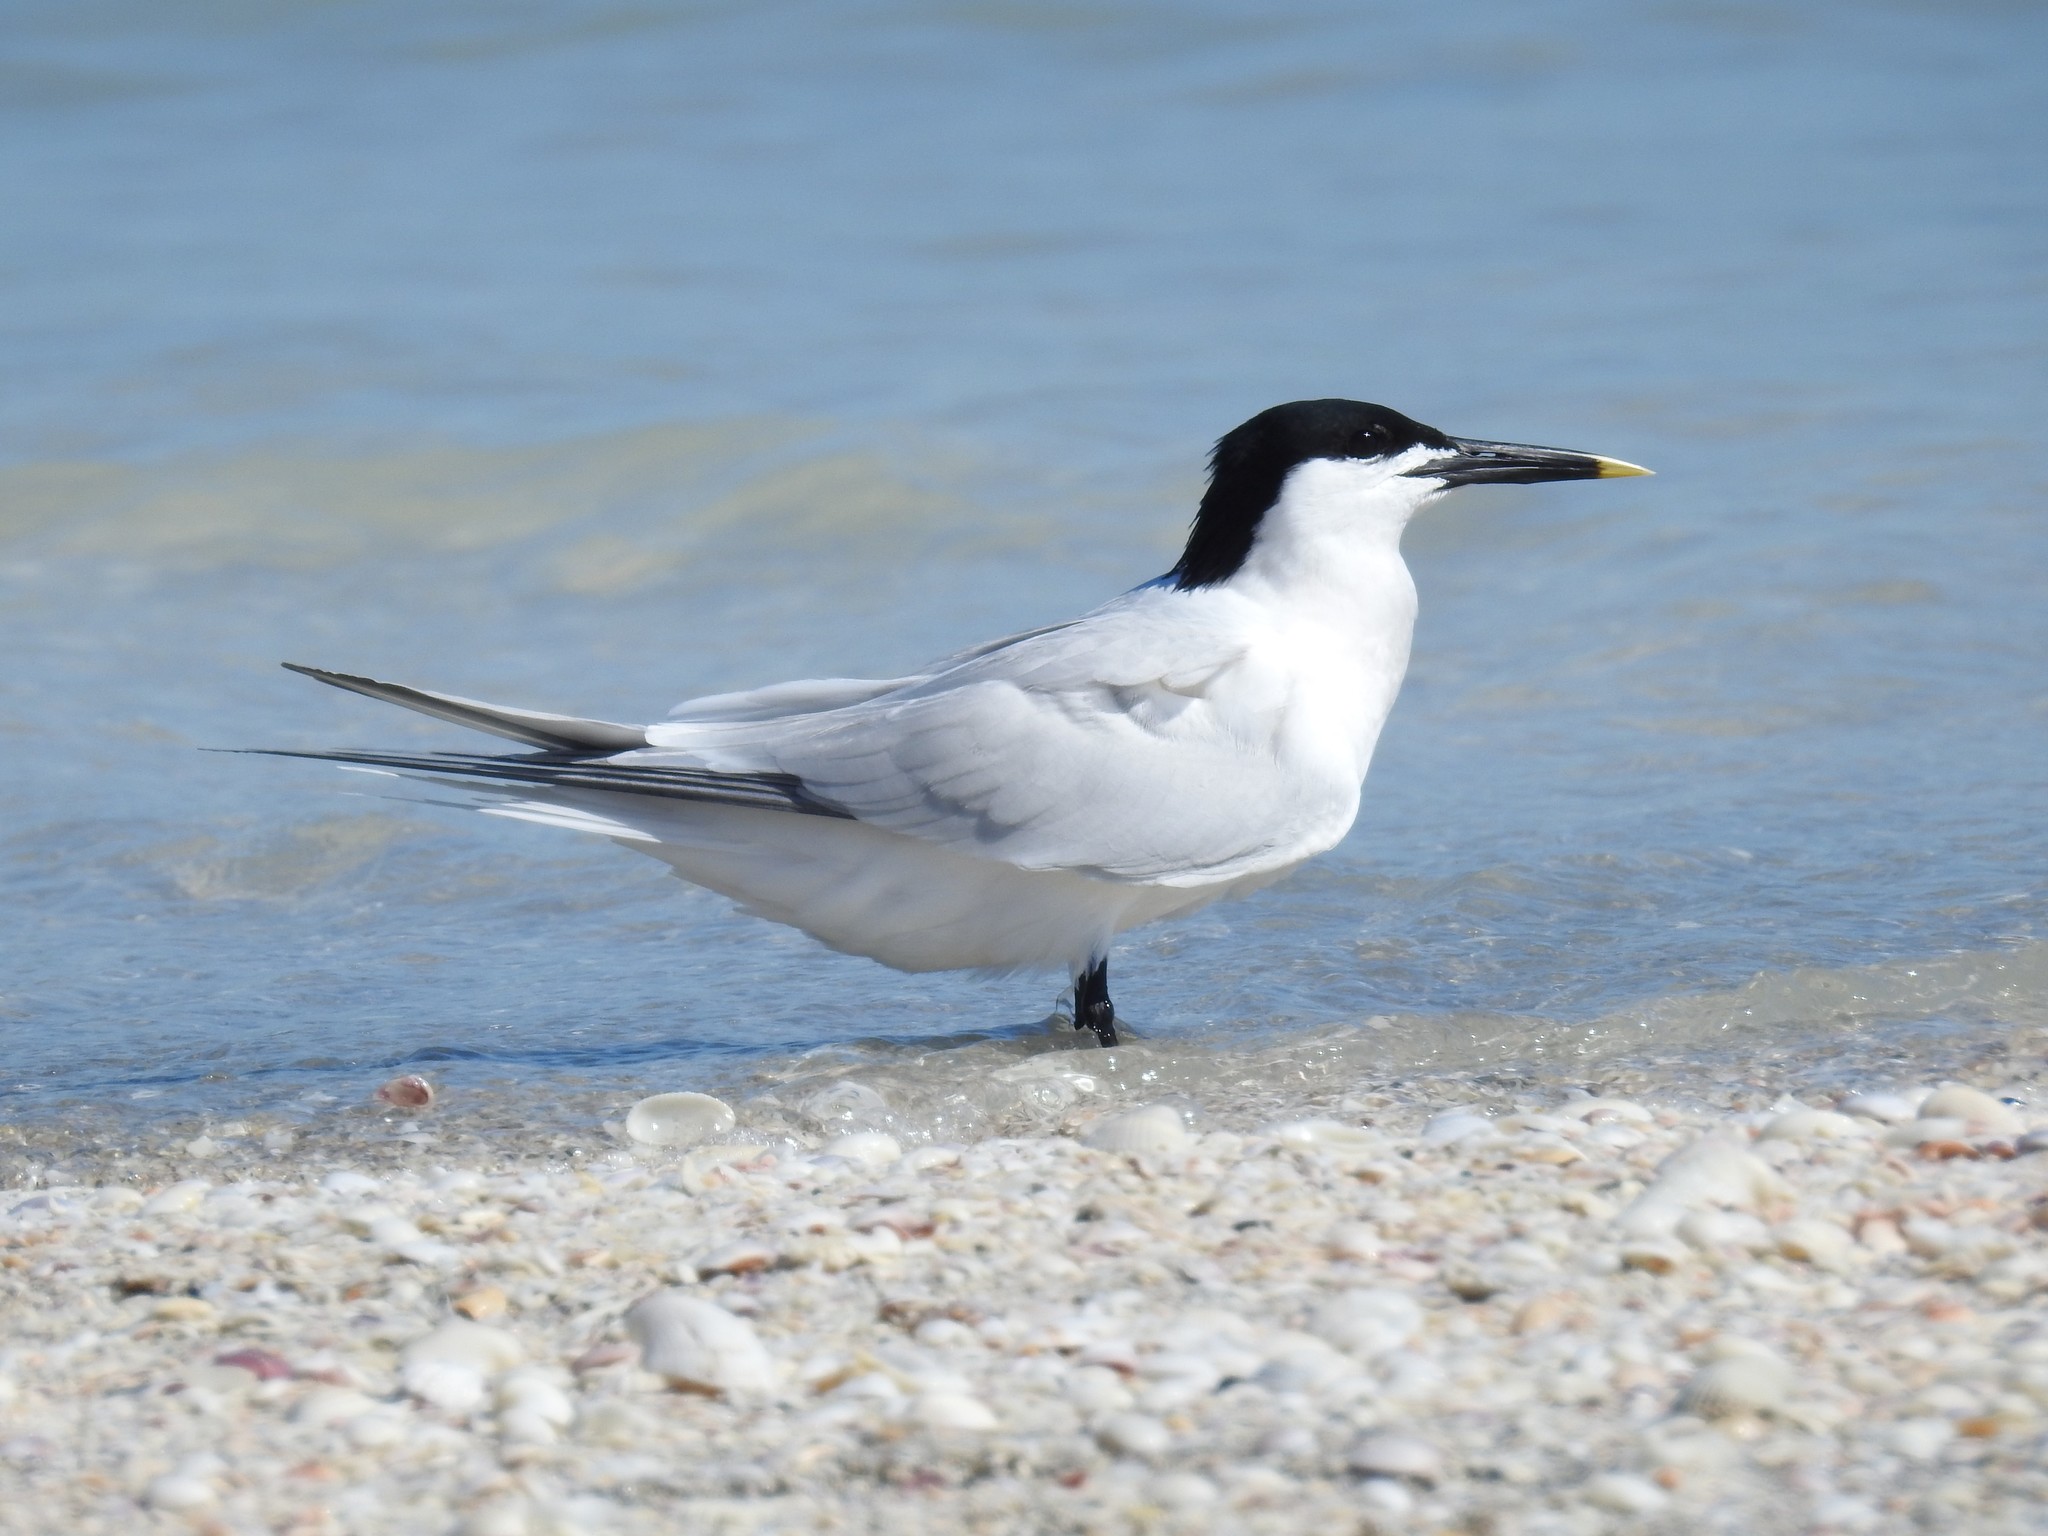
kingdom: Animalia
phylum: Chordata
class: Aves
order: Charadriiformes
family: Laridae
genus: Thalasseus
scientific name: Thalasseus sandvicensis
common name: Sandwich tern
